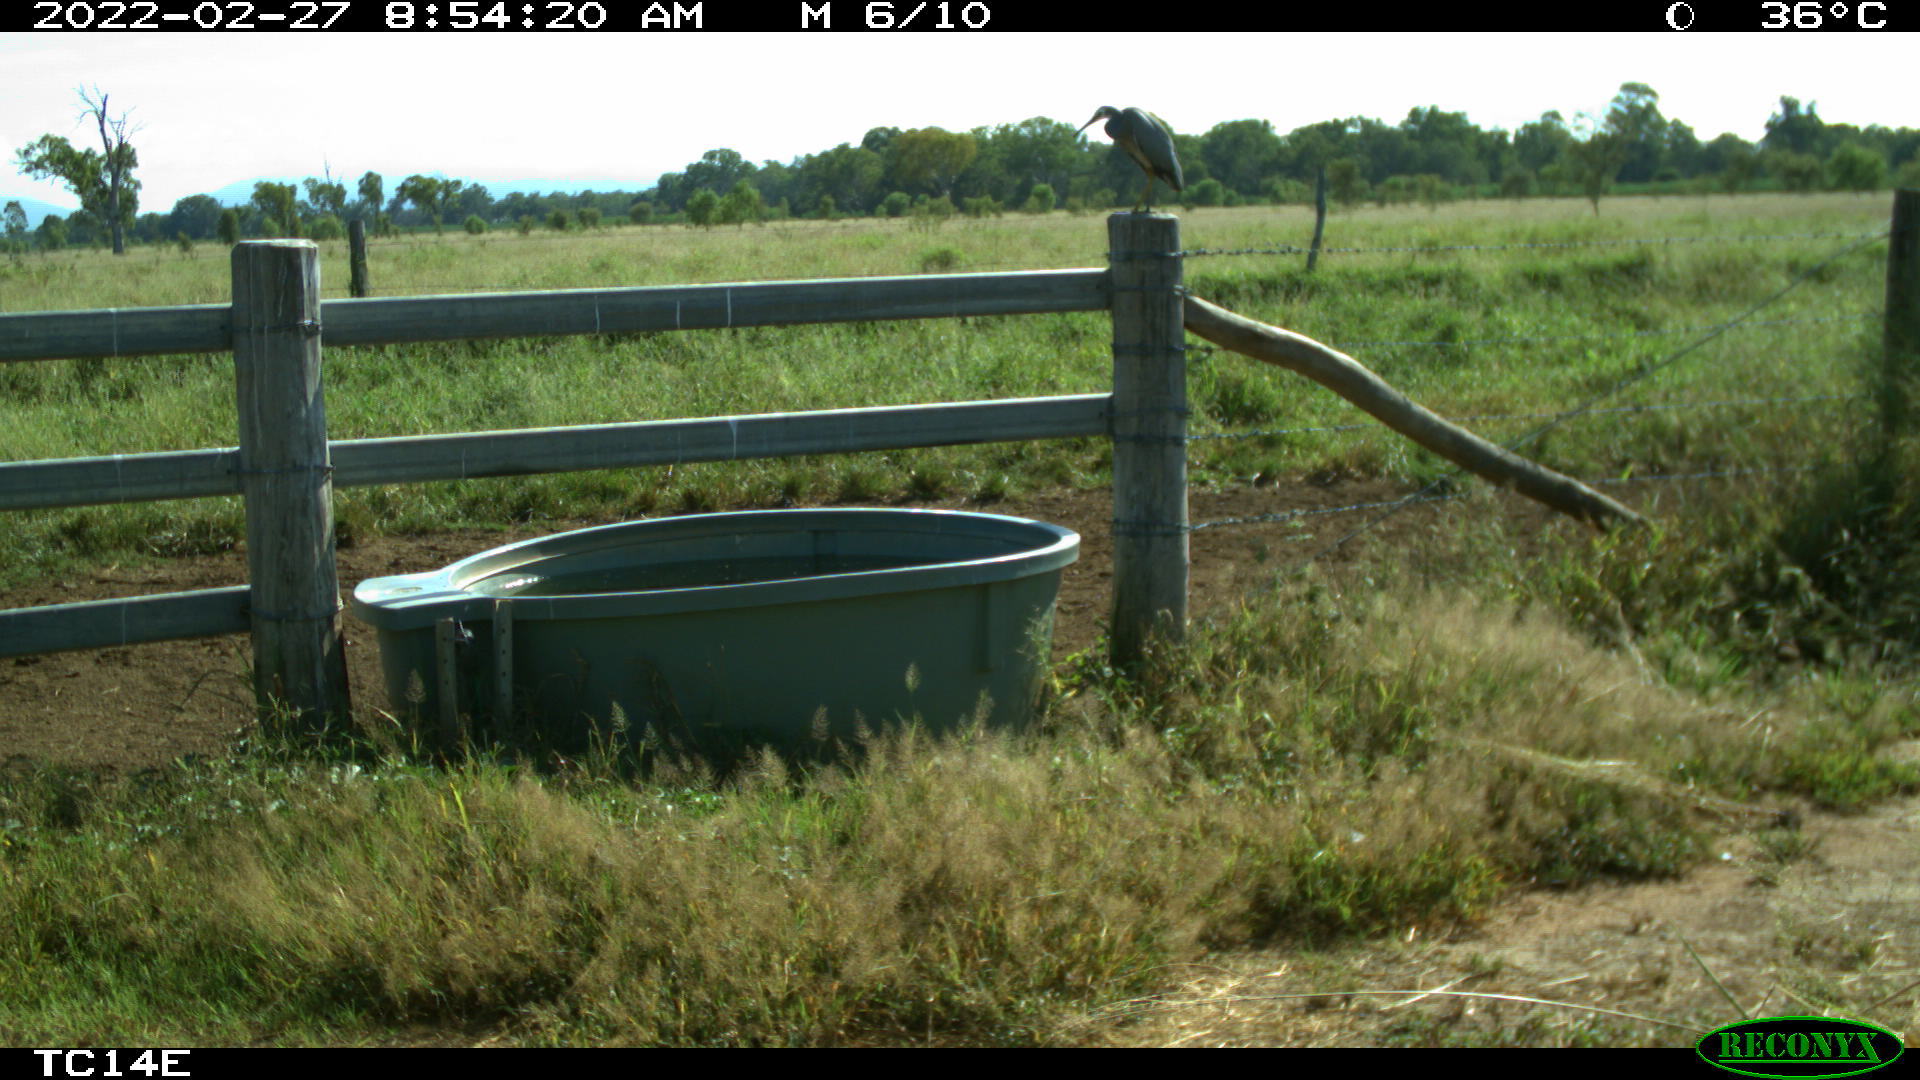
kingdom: Animalia
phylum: Chordata
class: Aves
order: Pelecaniformes
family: Ardeidae
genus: Egretta
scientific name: Egretta novaehollandiae
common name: White-faced heron
